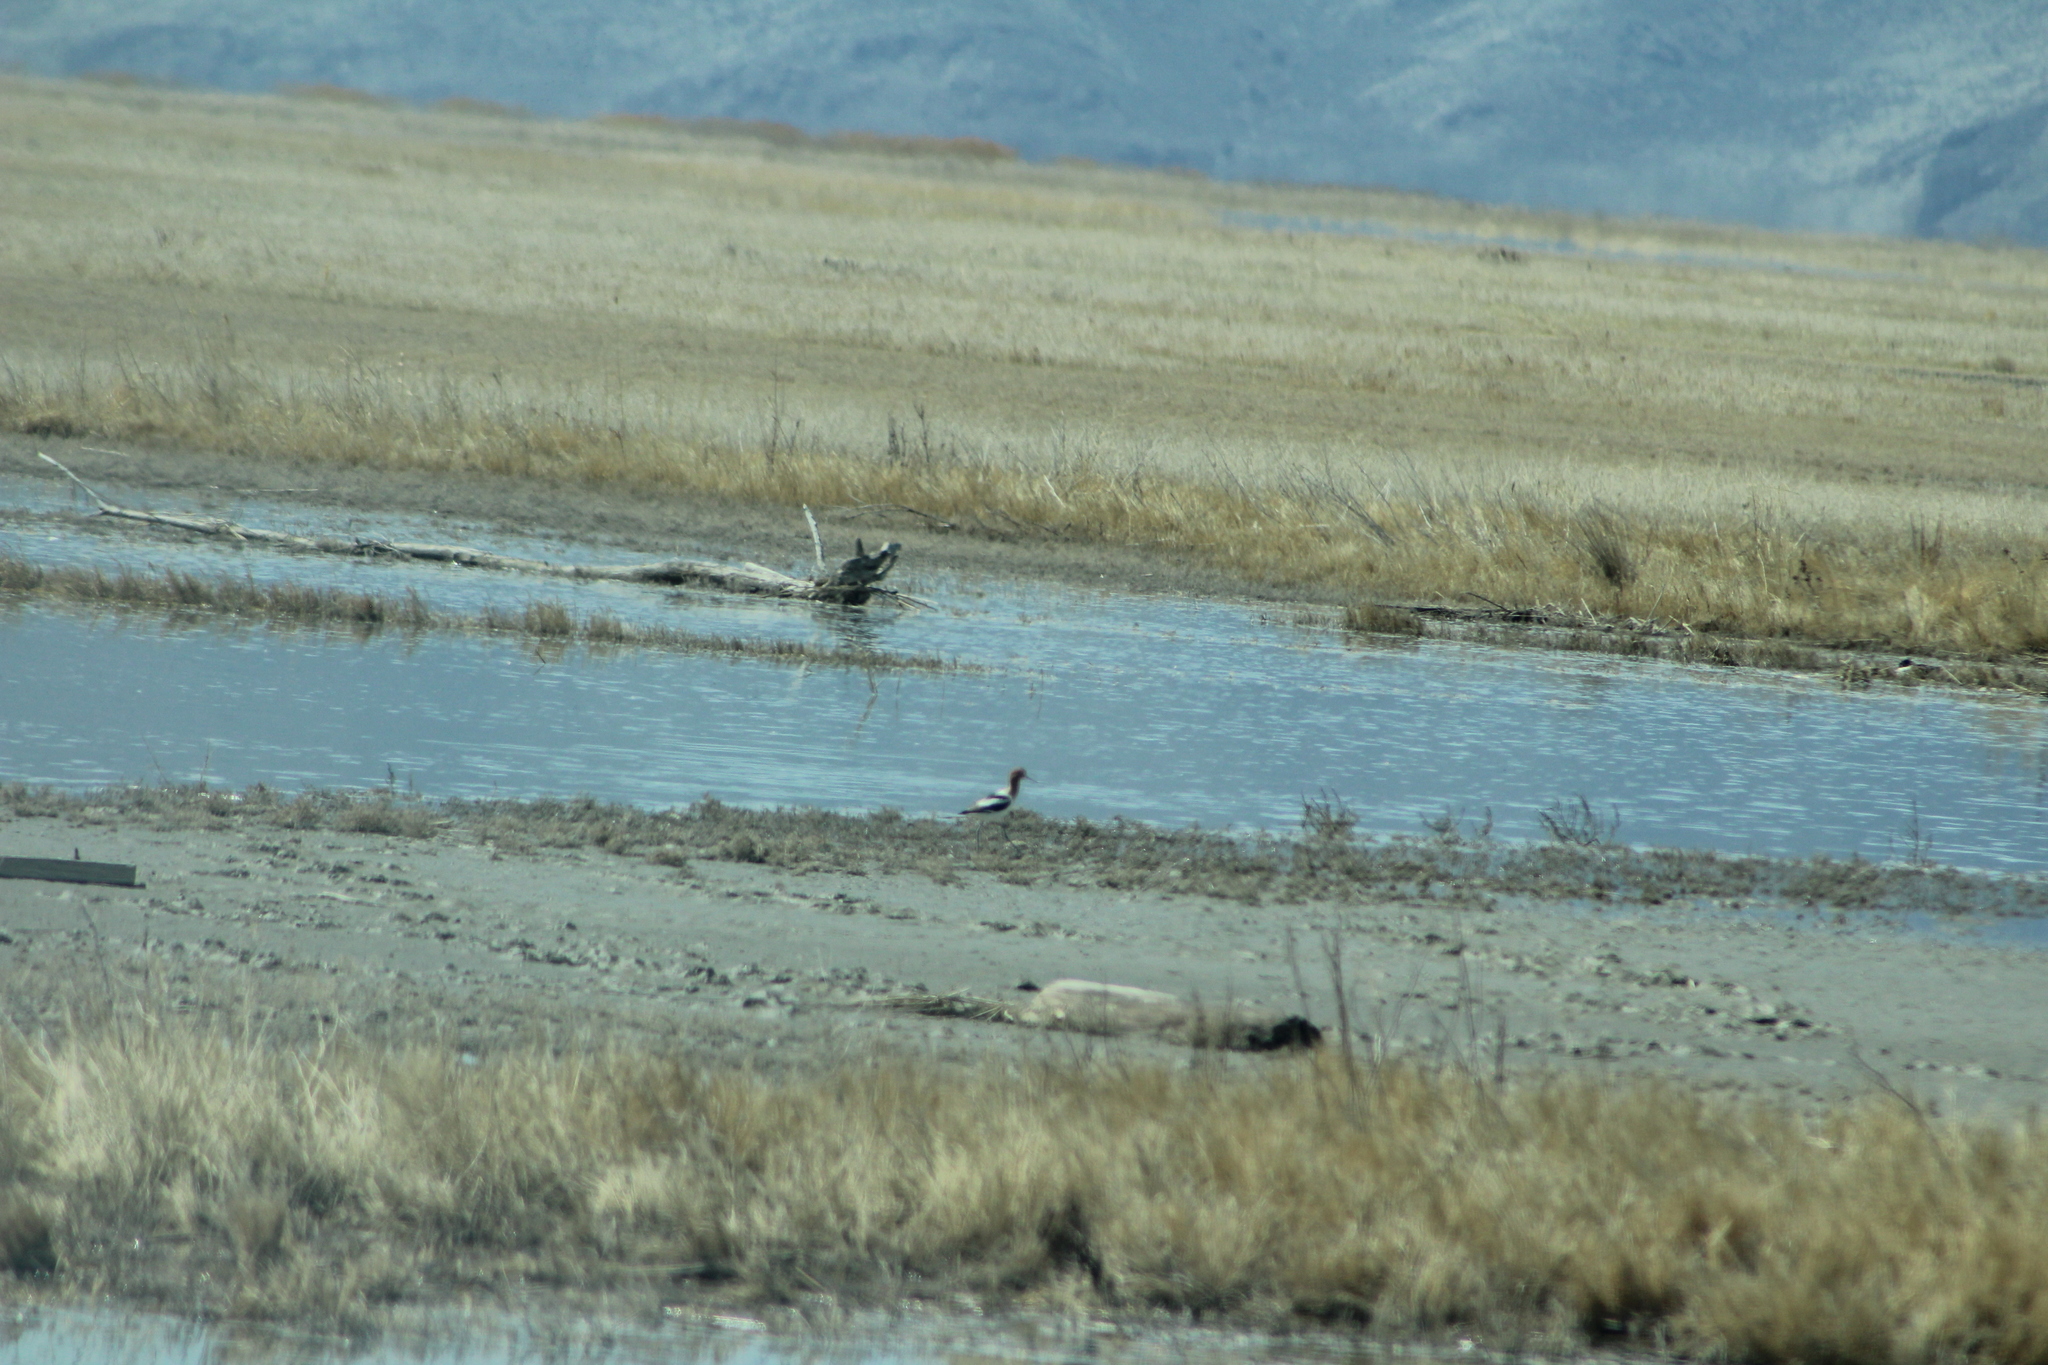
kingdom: Animalia
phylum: Chordata
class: Aves
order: Charadriiformes
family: Recurvirostridae
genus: Recurvirostra
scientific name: Recurvirostra americana
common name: American avocet
